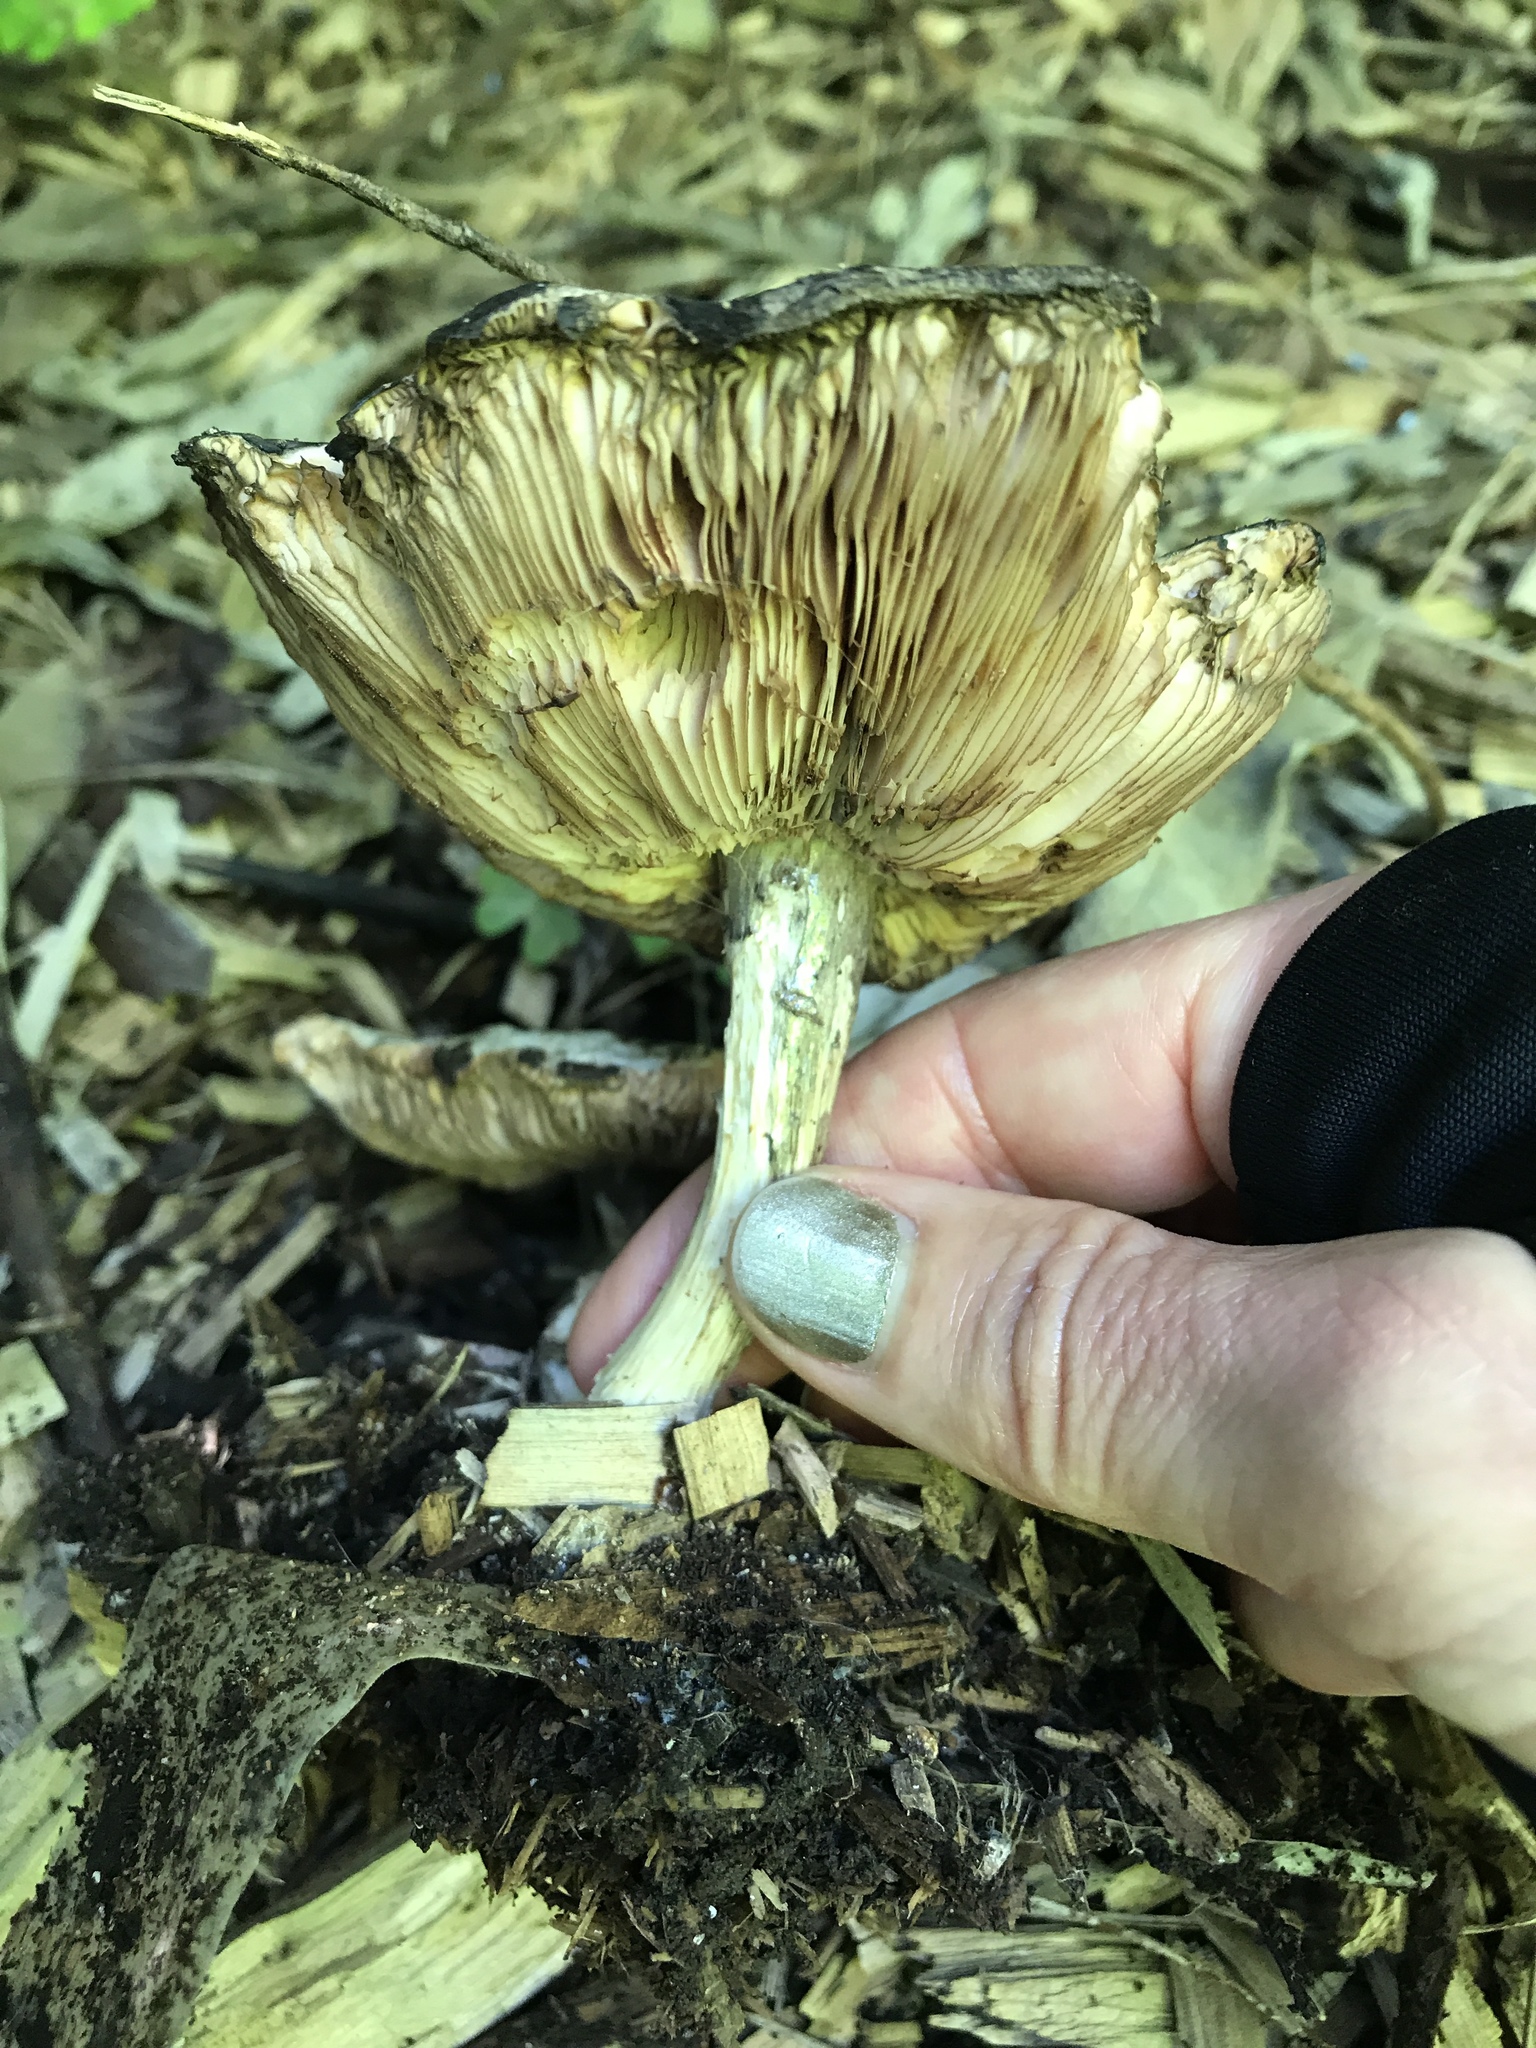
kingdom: Fungi
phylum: Basidiomycota
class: Agaricomycetes
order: Agaricales
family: Pluteaceae
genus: Pluteus
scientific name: Pluteus atromarginatus
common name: Blackedged shield
